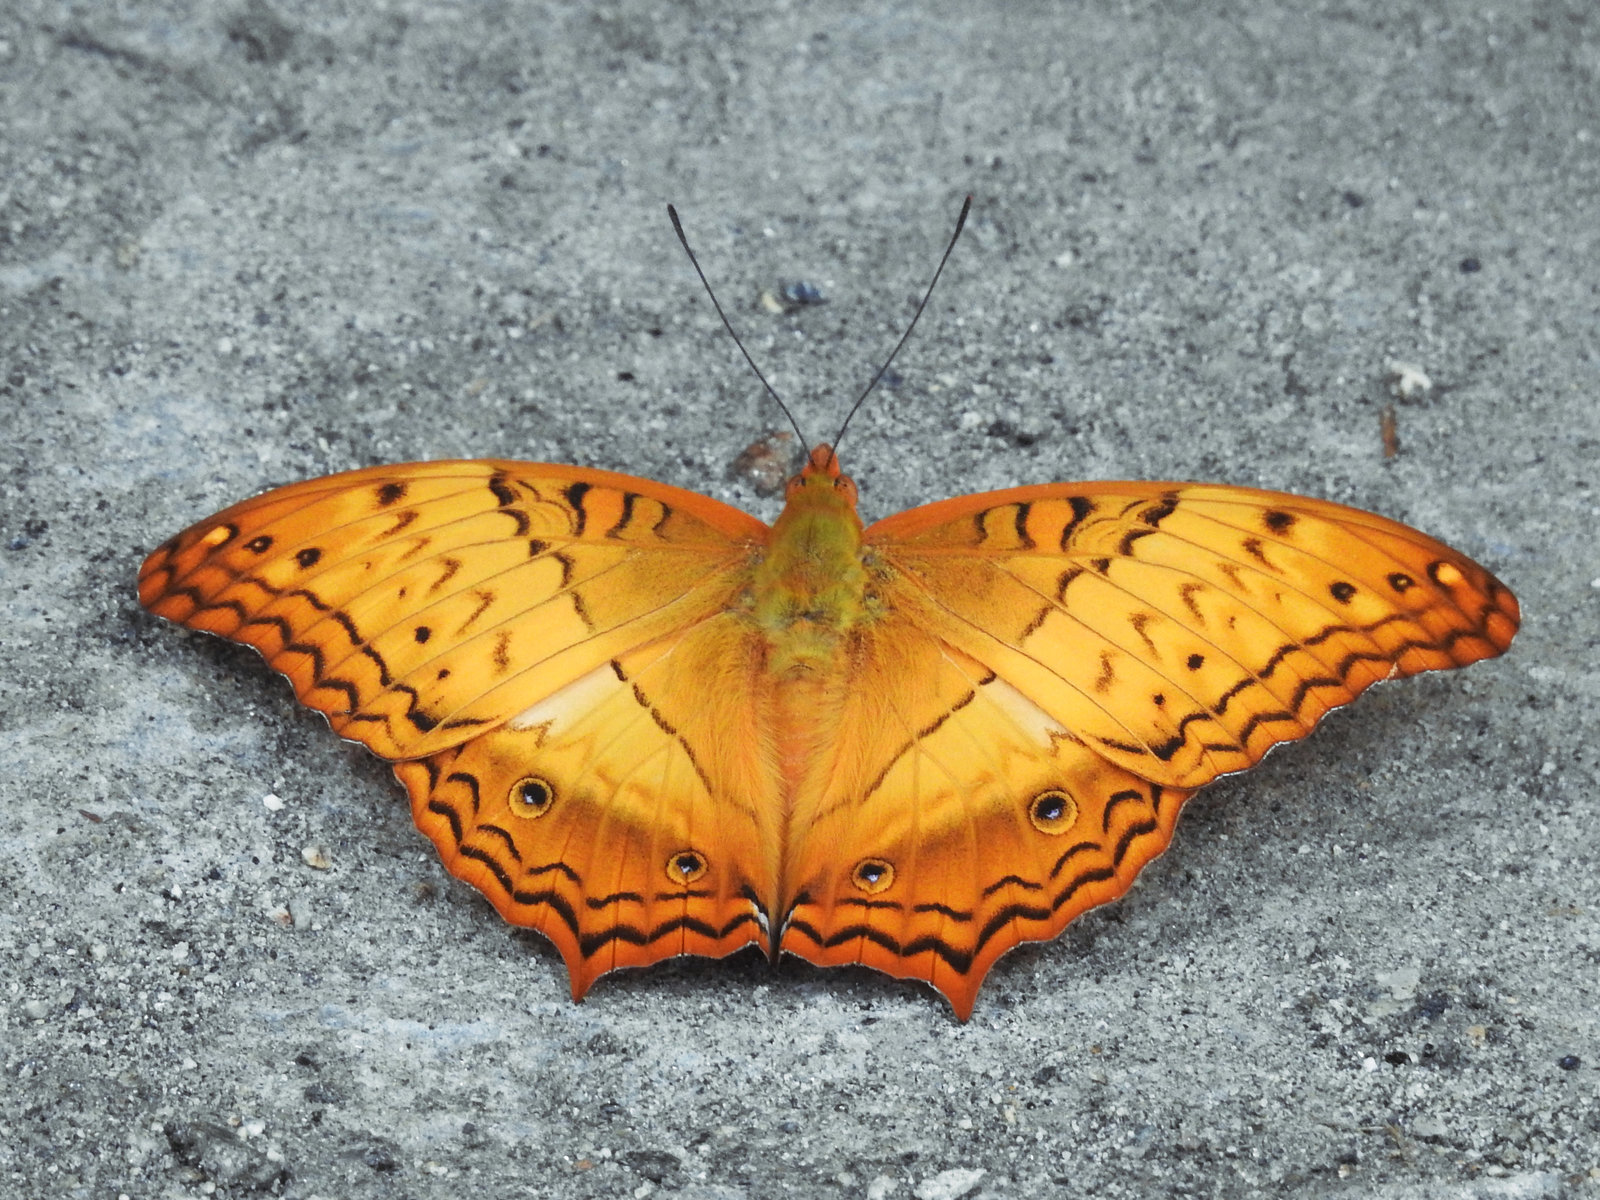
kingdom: Animalia
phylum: Arthropoda
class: Insecta
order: Lepidoptera
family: Nymphalidae
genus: Vindula
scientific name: Vindula erota
